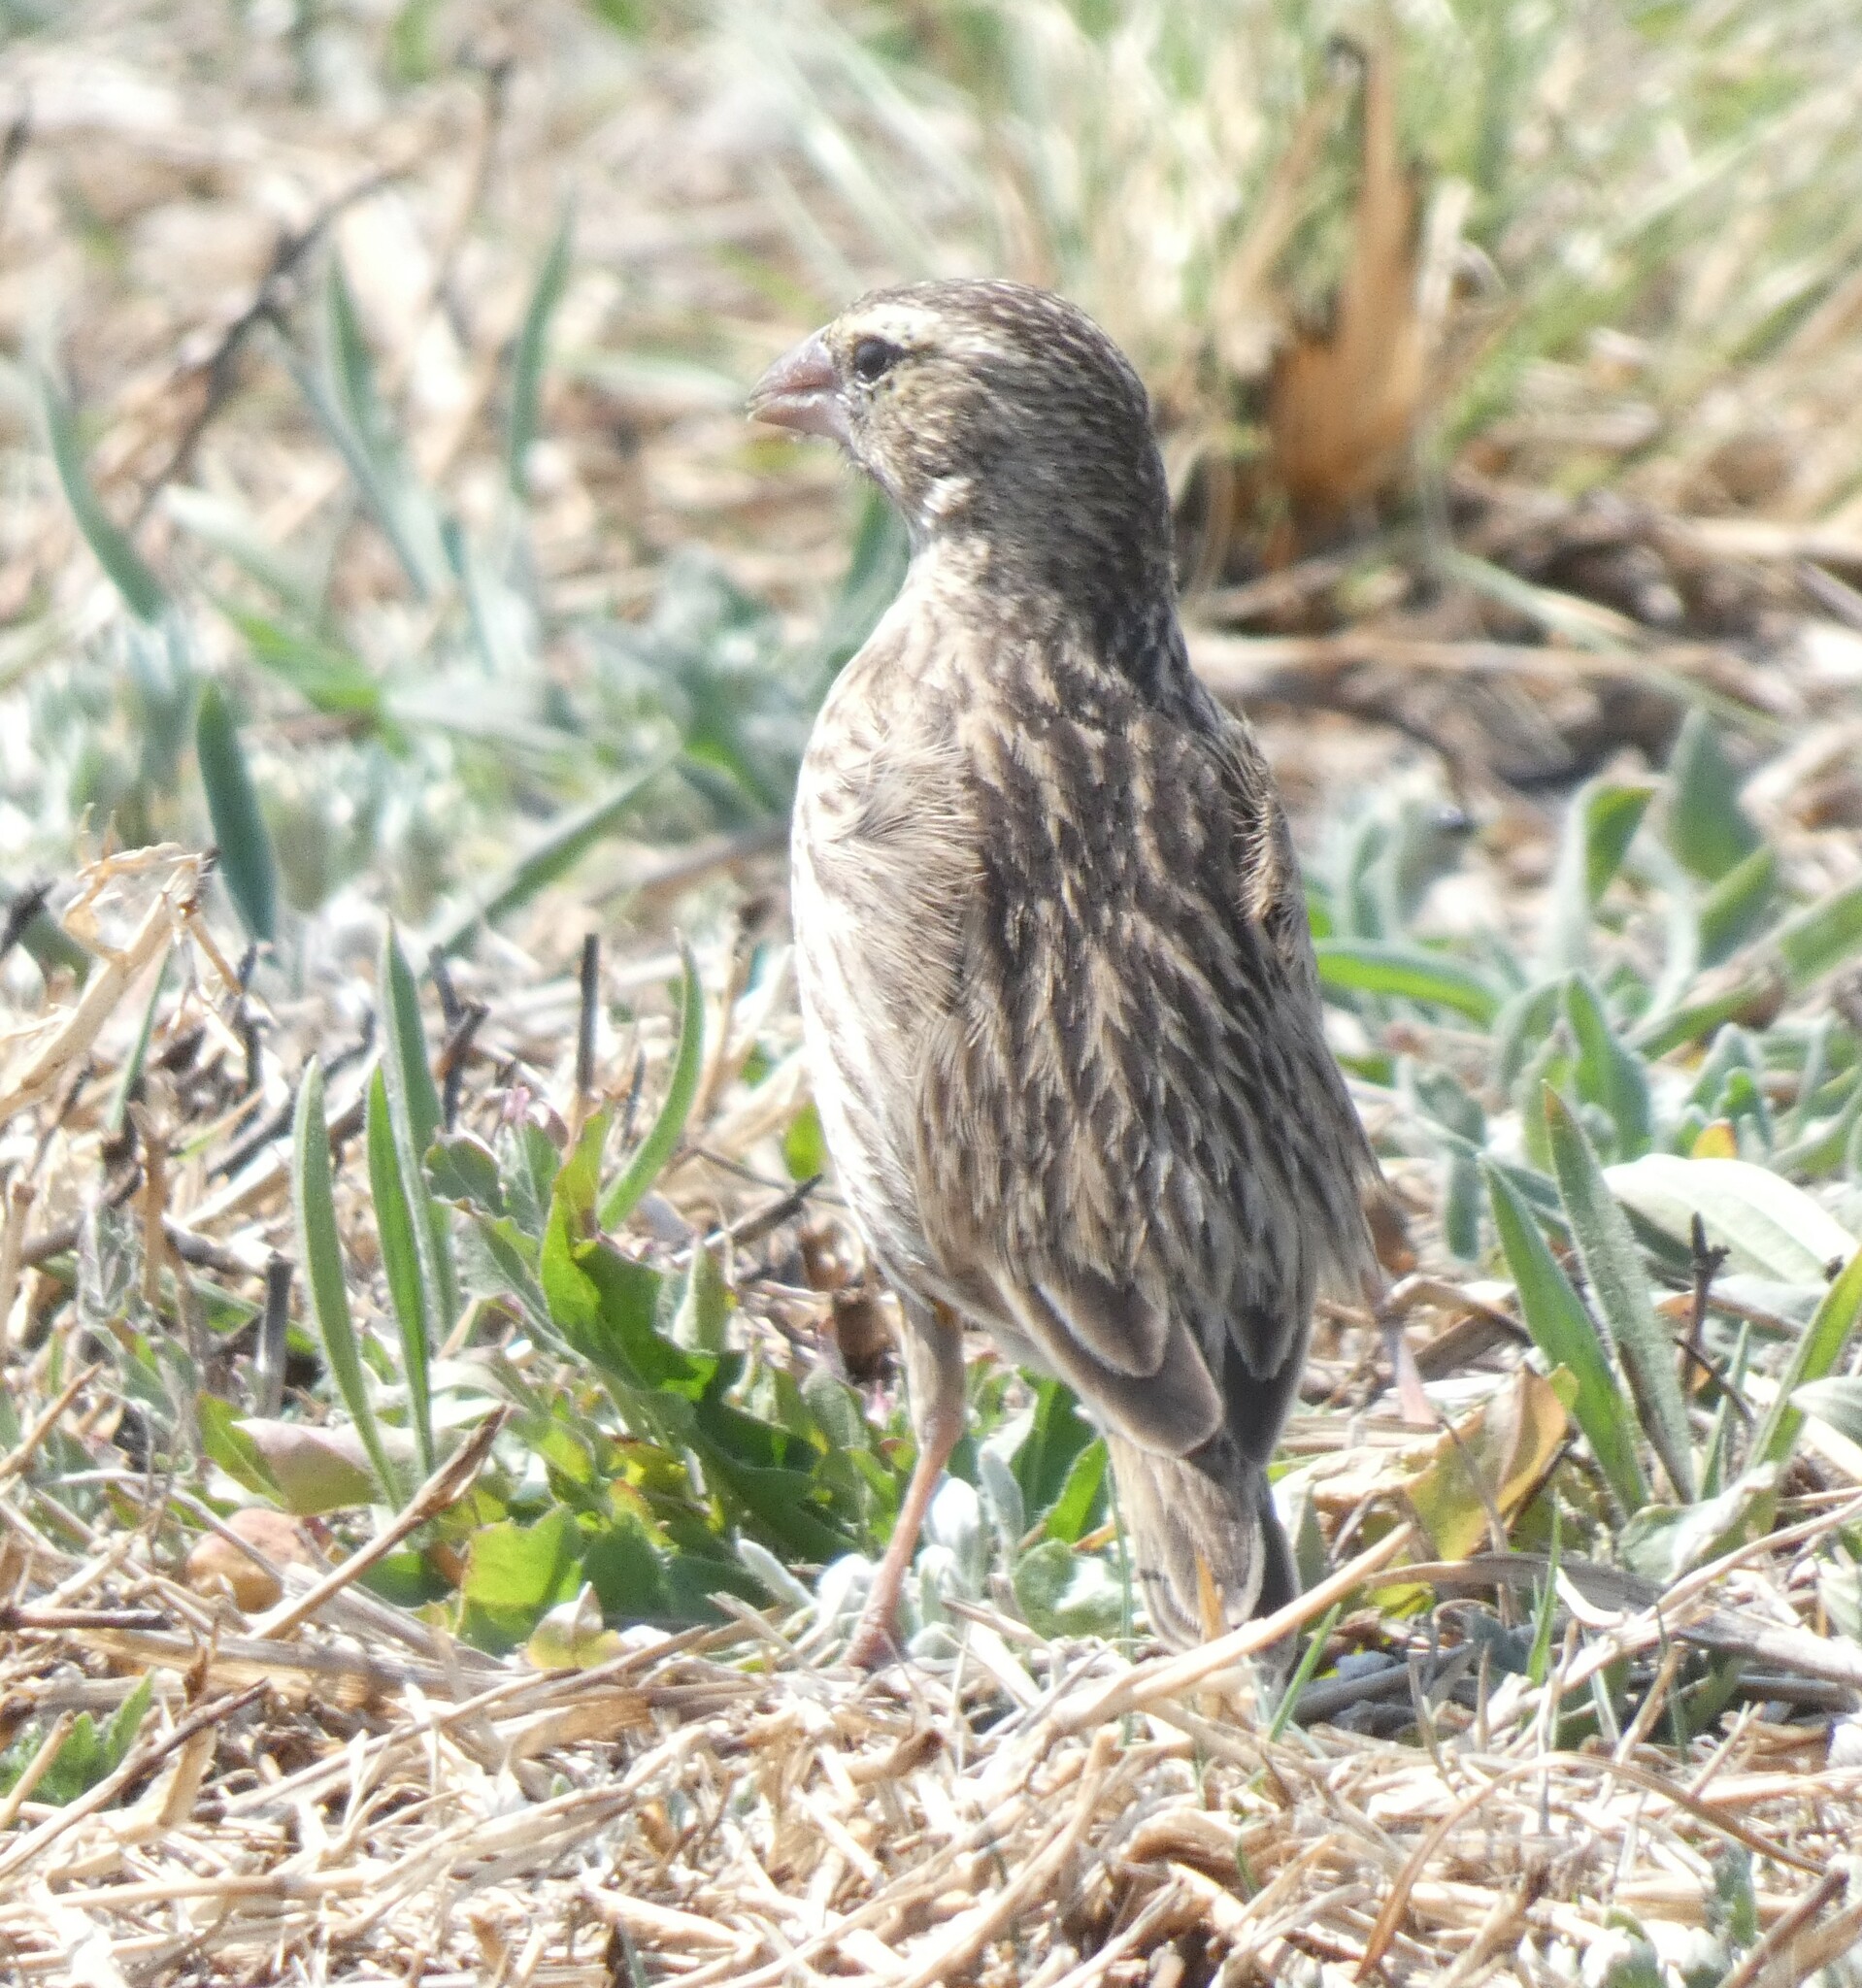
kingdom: Animalia
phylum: Chordata
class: Aves
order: Passeriformes
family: Ploceidae
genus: Euplectes
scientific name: Euplectes orix
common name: Southern red bishop
